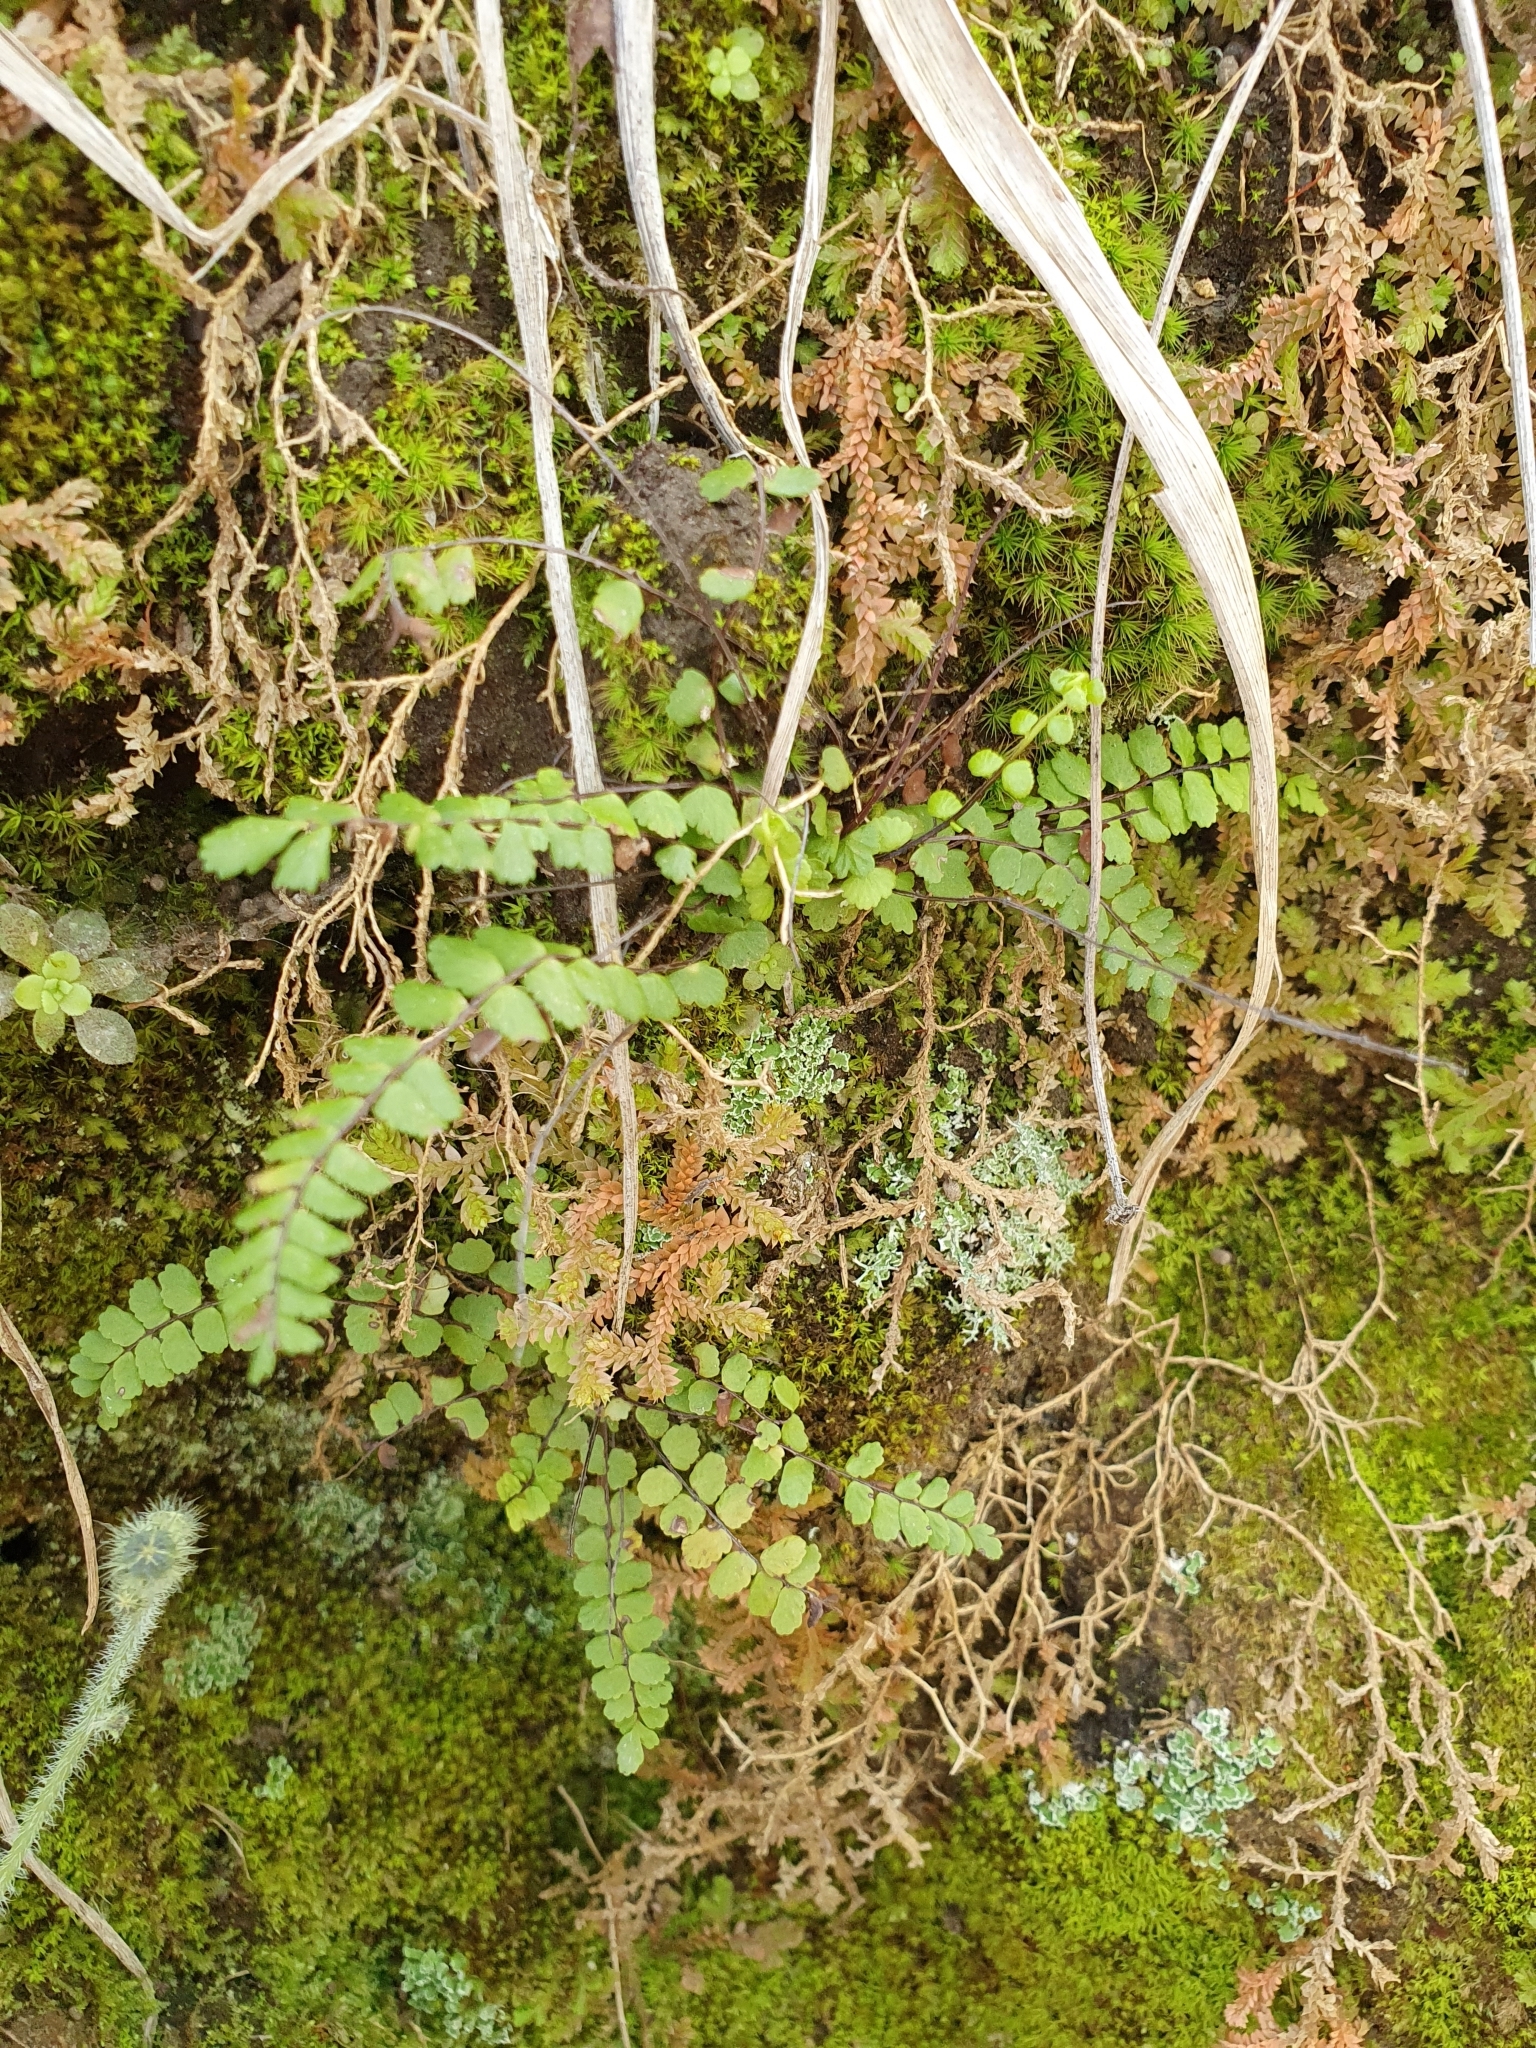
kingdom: Plantae
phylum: Tracheophyta
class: Polypodiopsida
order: Polypodiales
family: Aspleniaceae
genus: Asplenium
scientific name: Asplenium trichomanes
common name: Maidenhair spleenwort
